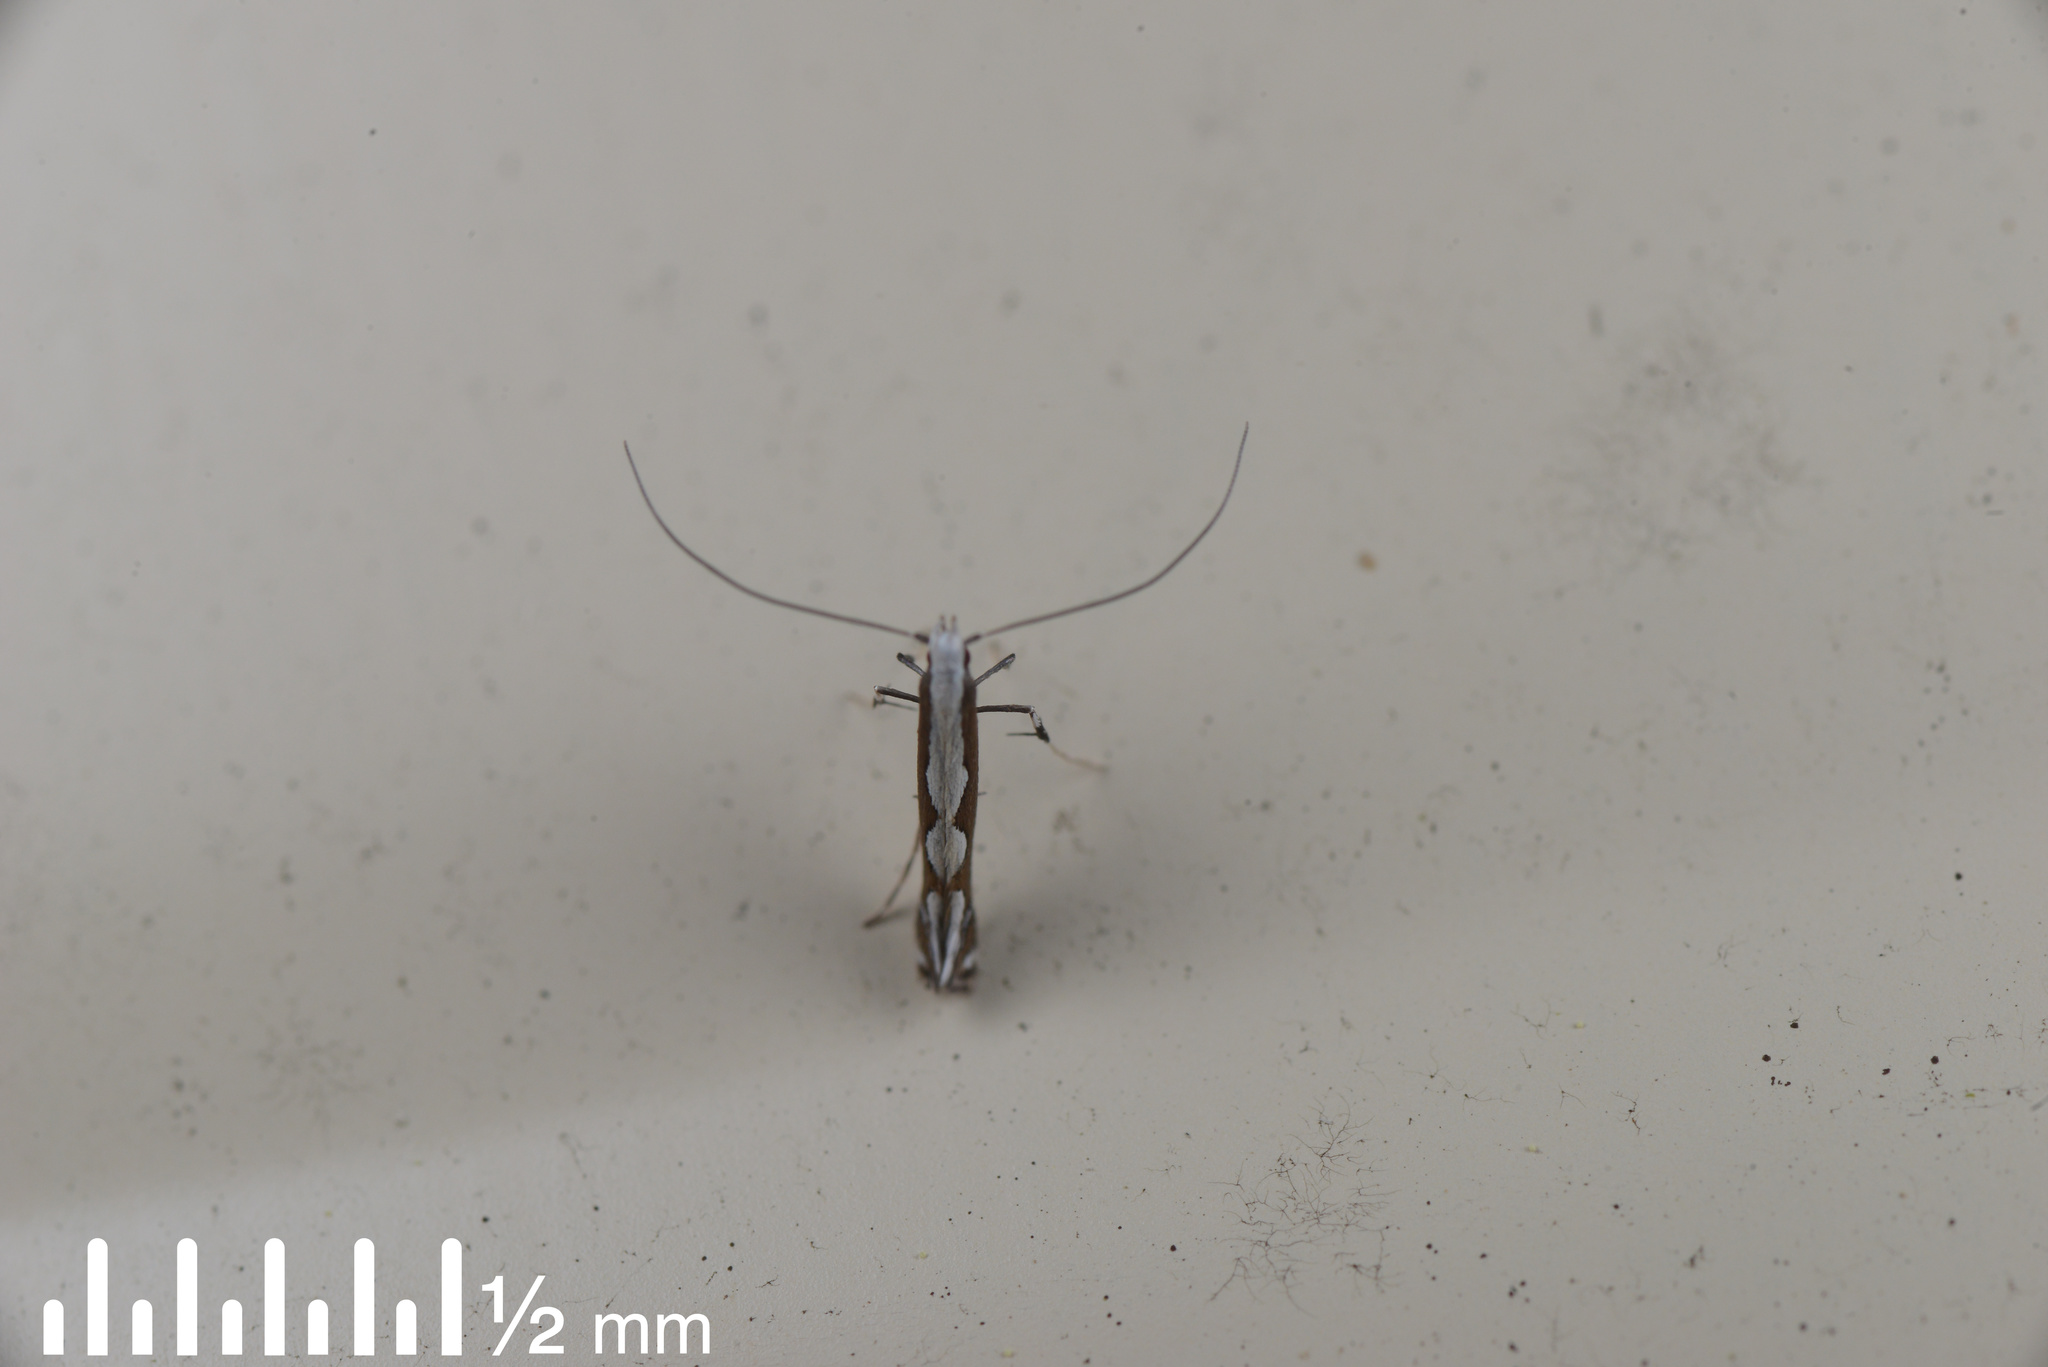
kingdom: Animalia
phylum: Arthropoda
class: Insecta
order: Lepidoptera
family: Gracillariidae
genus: Dialectica
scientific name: Dialectica scalariella
